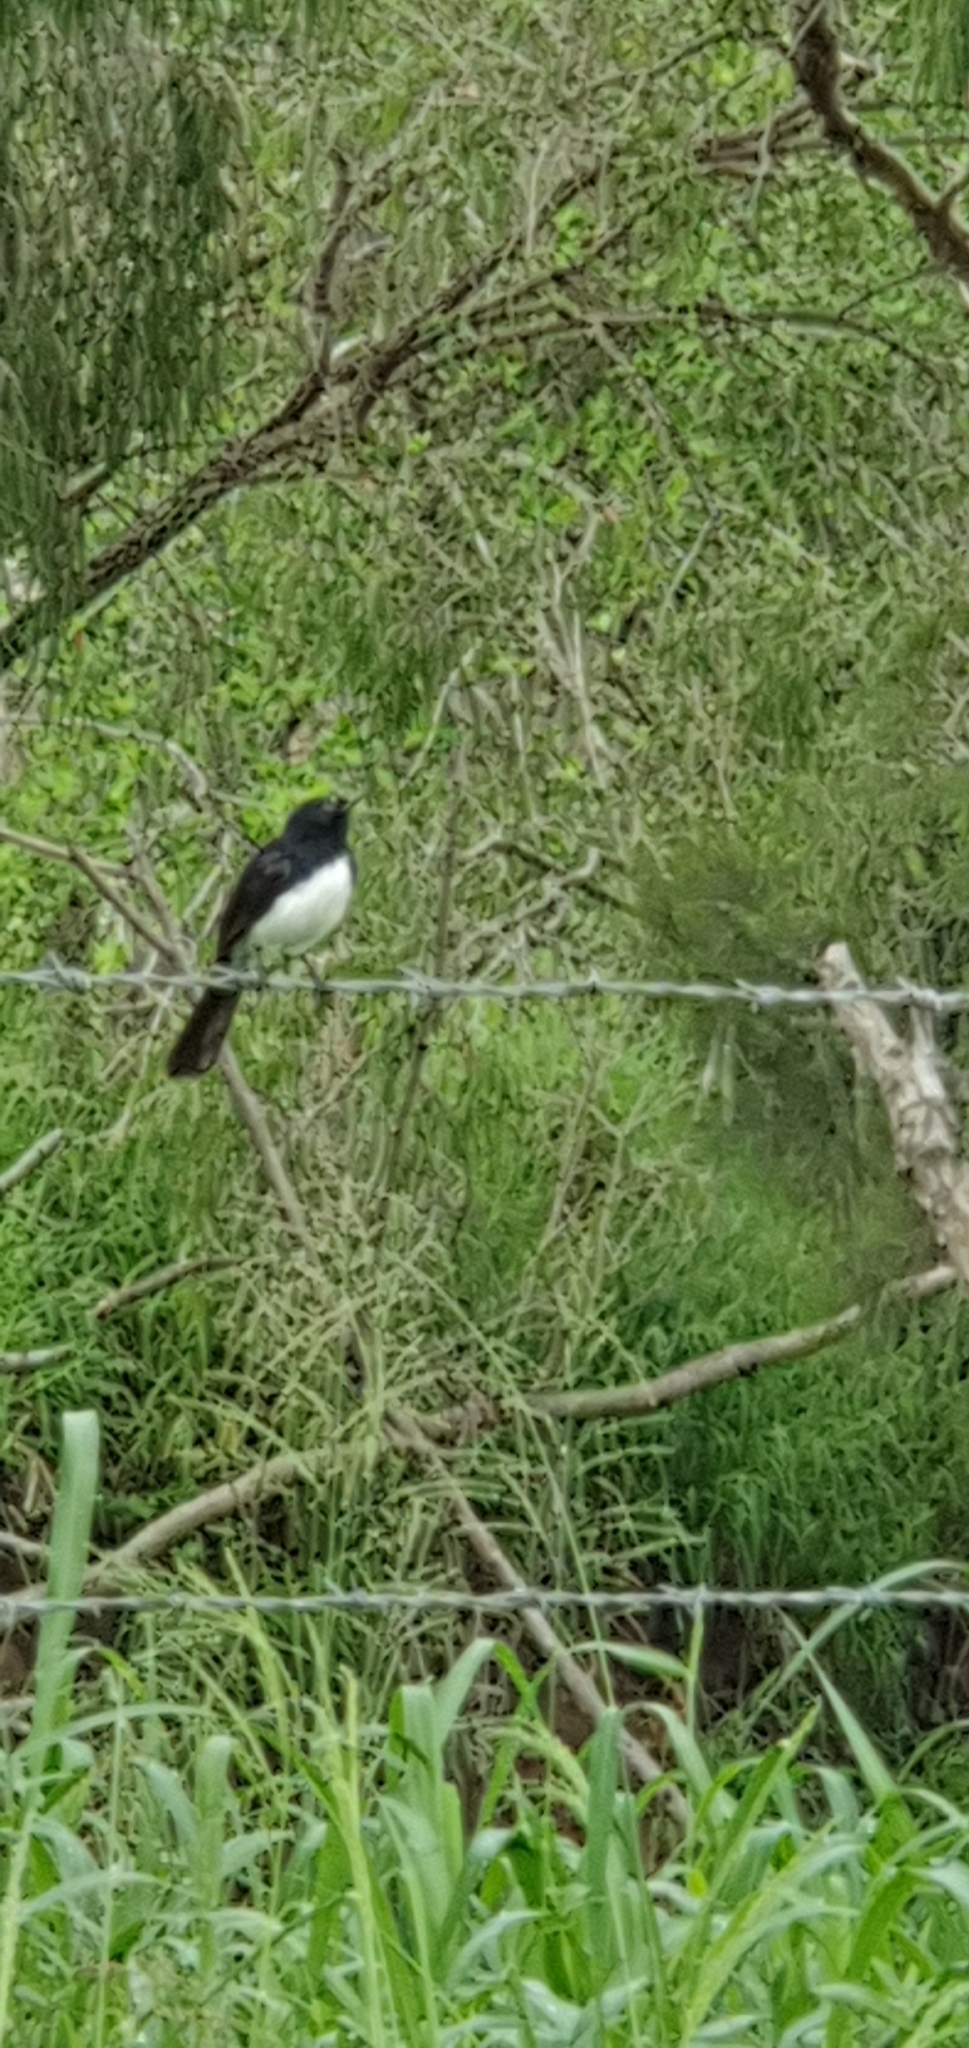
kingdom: Animalia
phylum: Chordata
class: Aves
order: Passeriformes
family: Rhipiduridae
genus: Rhipidura
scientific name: Rhipidura leucophrys
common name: Willie wagtail
